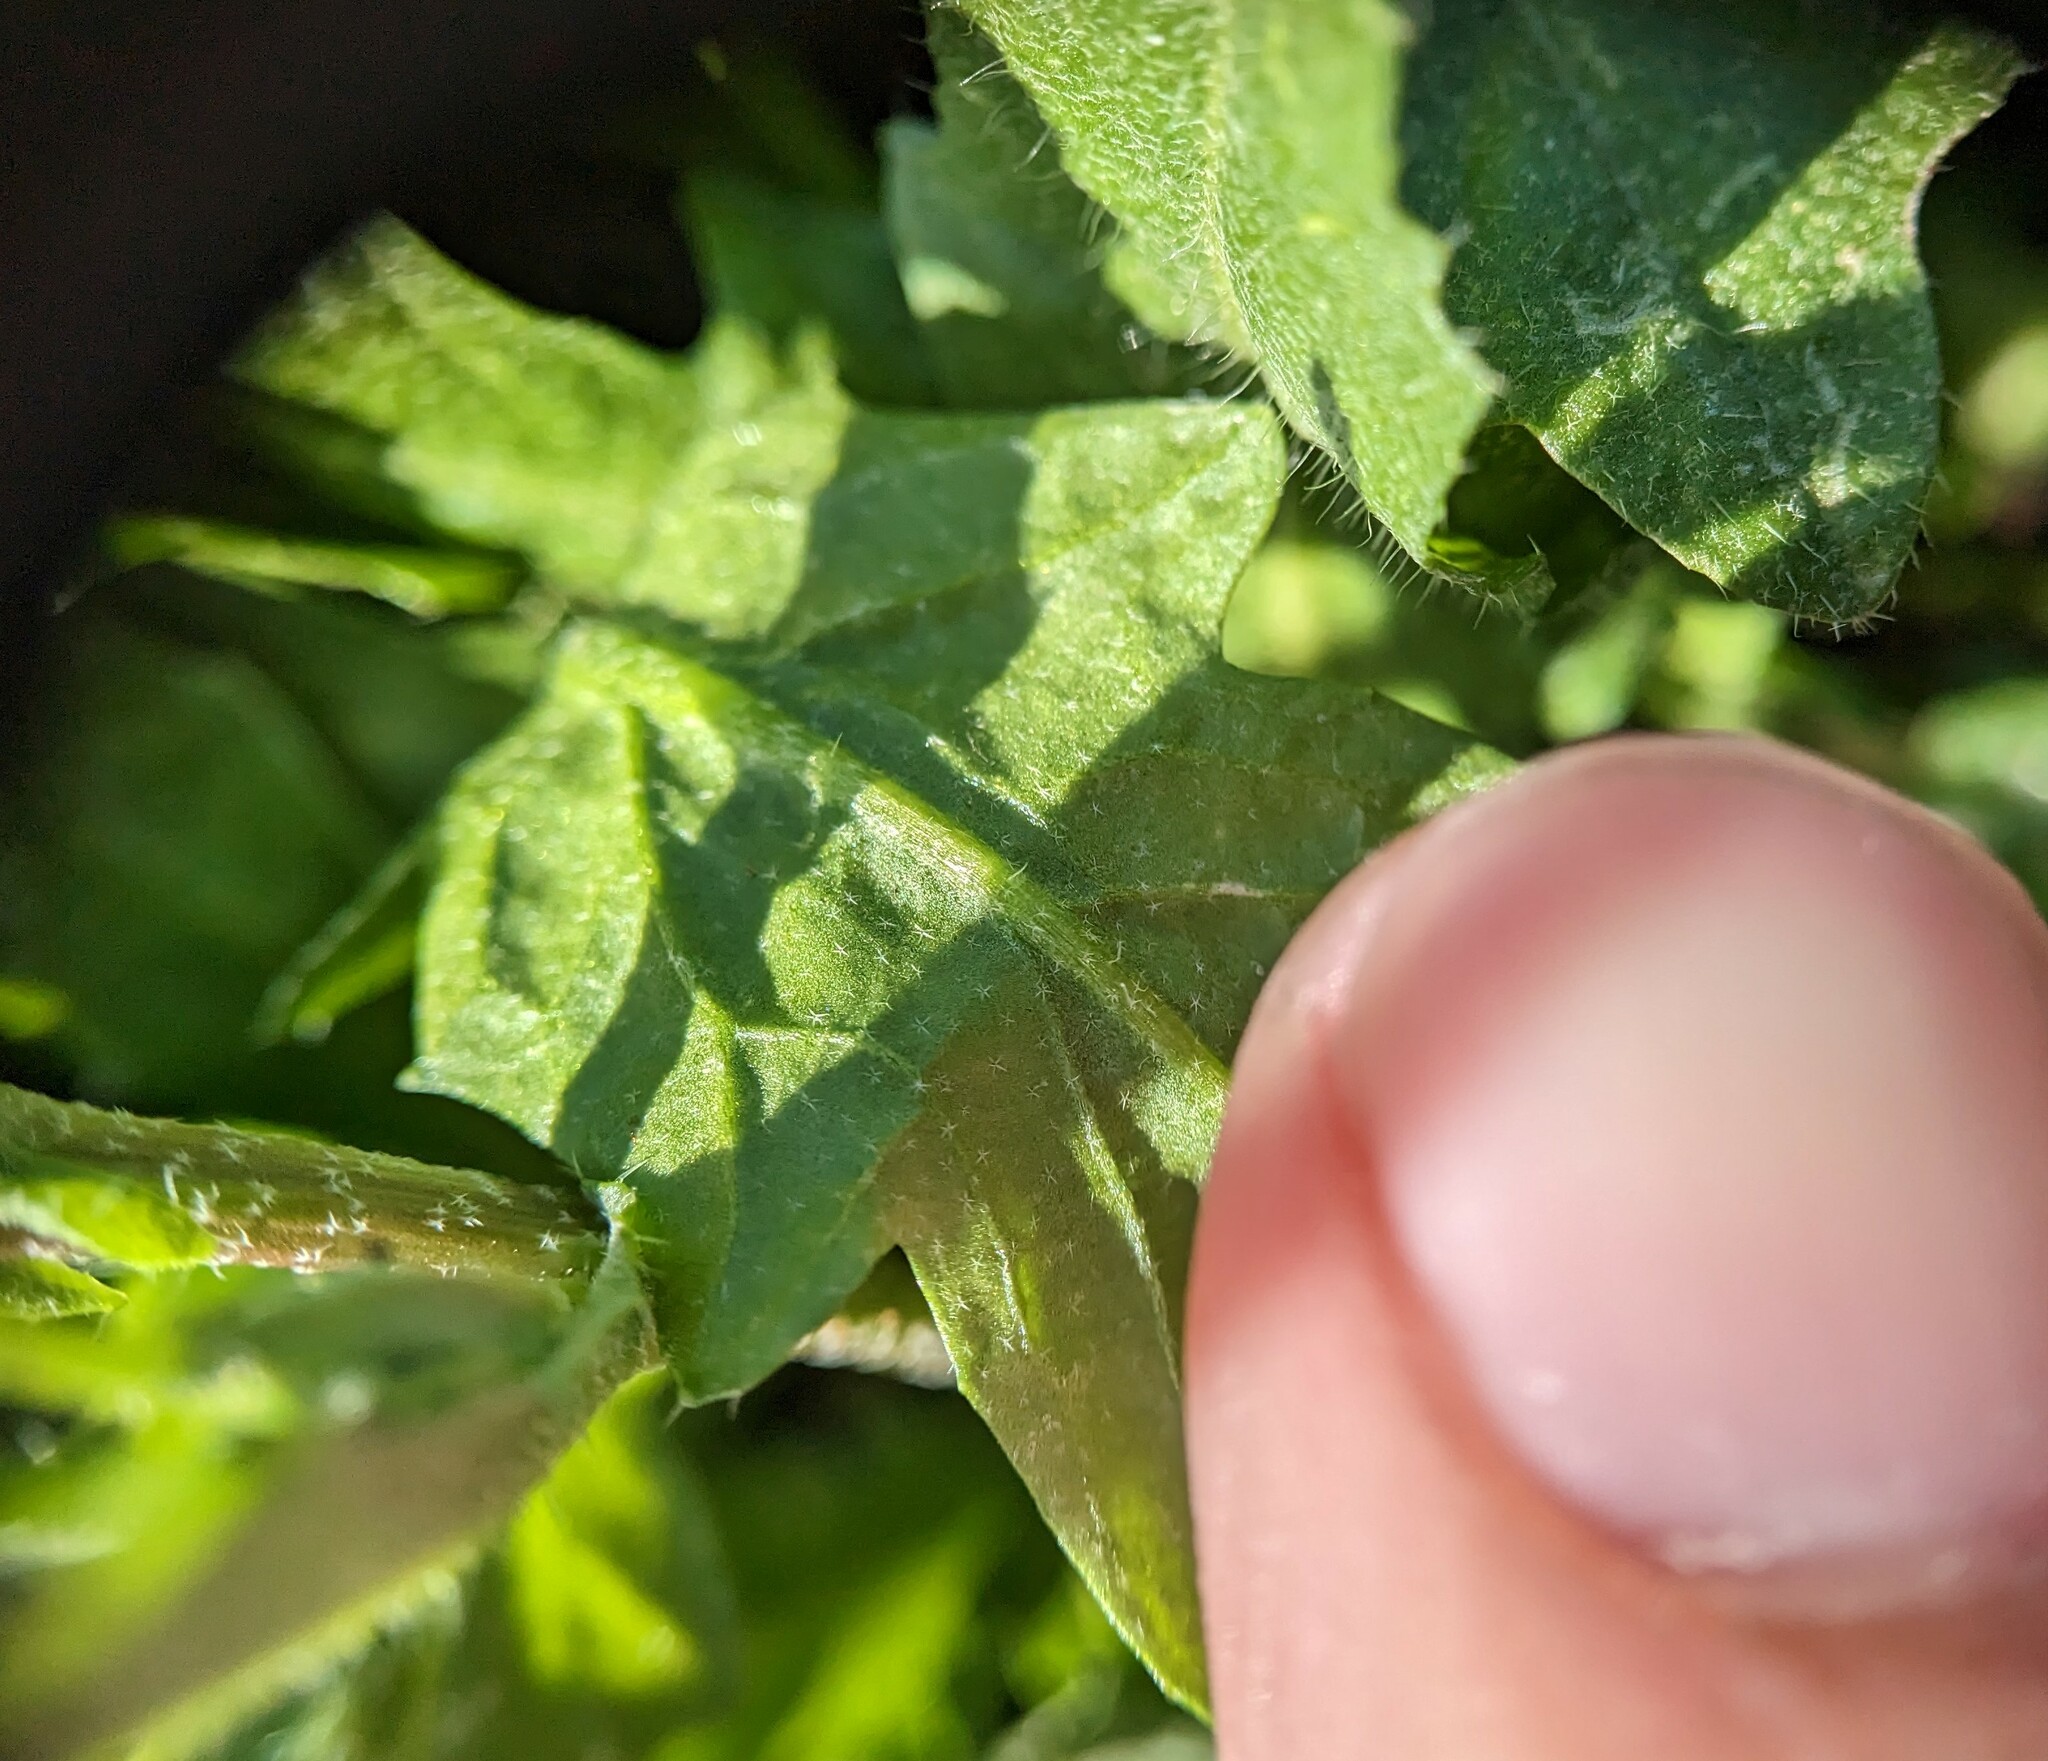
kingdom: Plantae
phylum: Tracheophyta
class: Magnoliopsida
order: Brassicales
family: Brassicaceae
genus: Capsella
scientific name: Capsella bursa-pastoris
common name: Shepherd's purse
